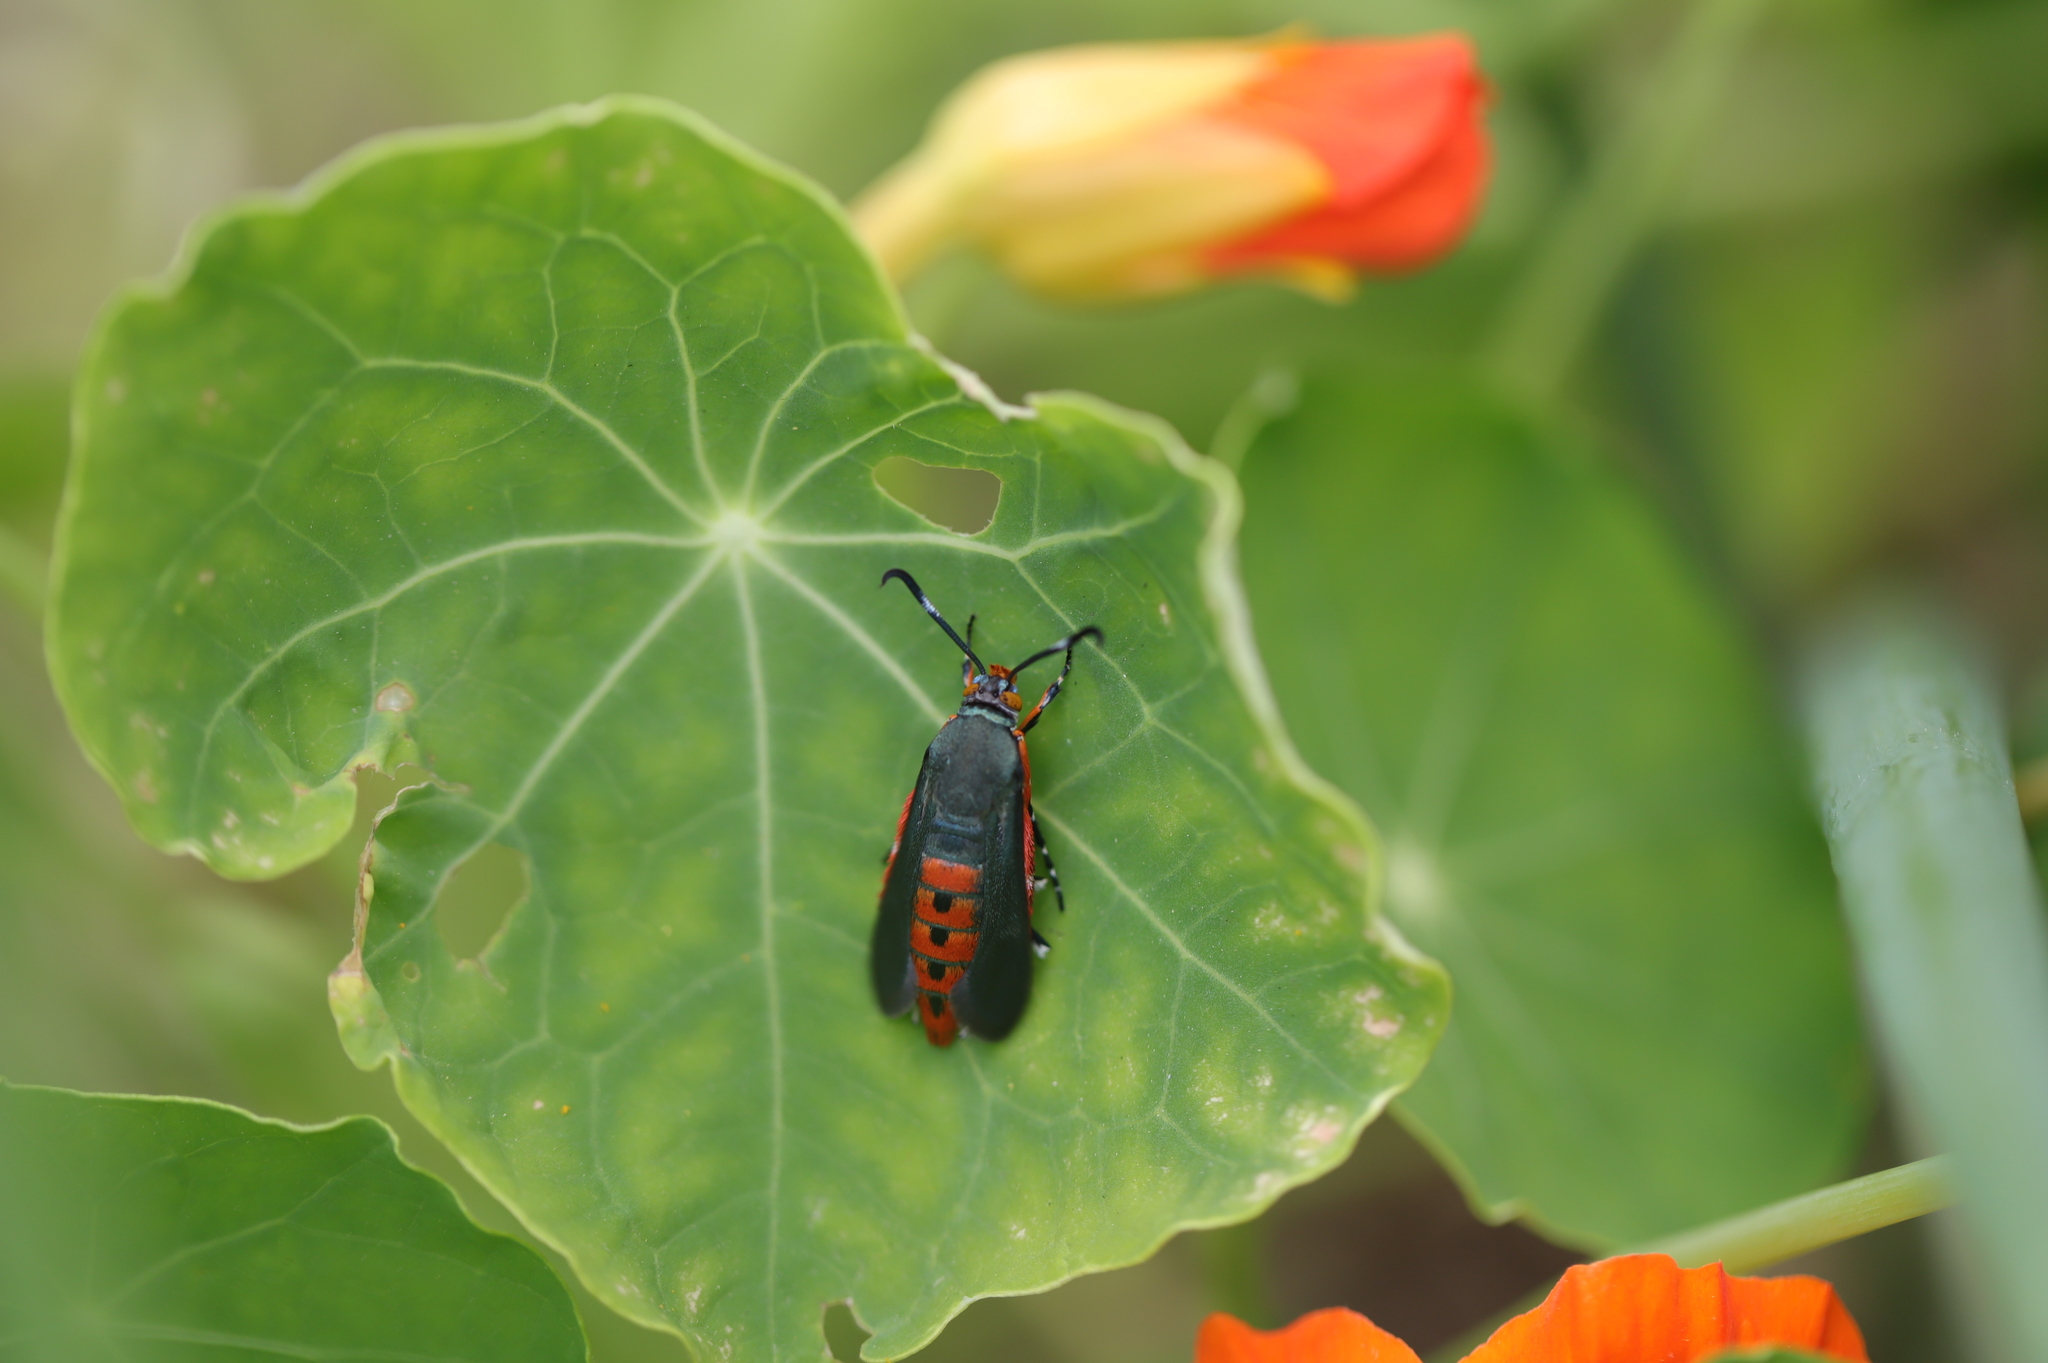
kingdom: Animalia
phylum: Arthropoda
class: Insecta
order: Lepidoptera
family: Sesiidae
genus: Eichlinia
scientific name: Eichlinia cucurbitae
